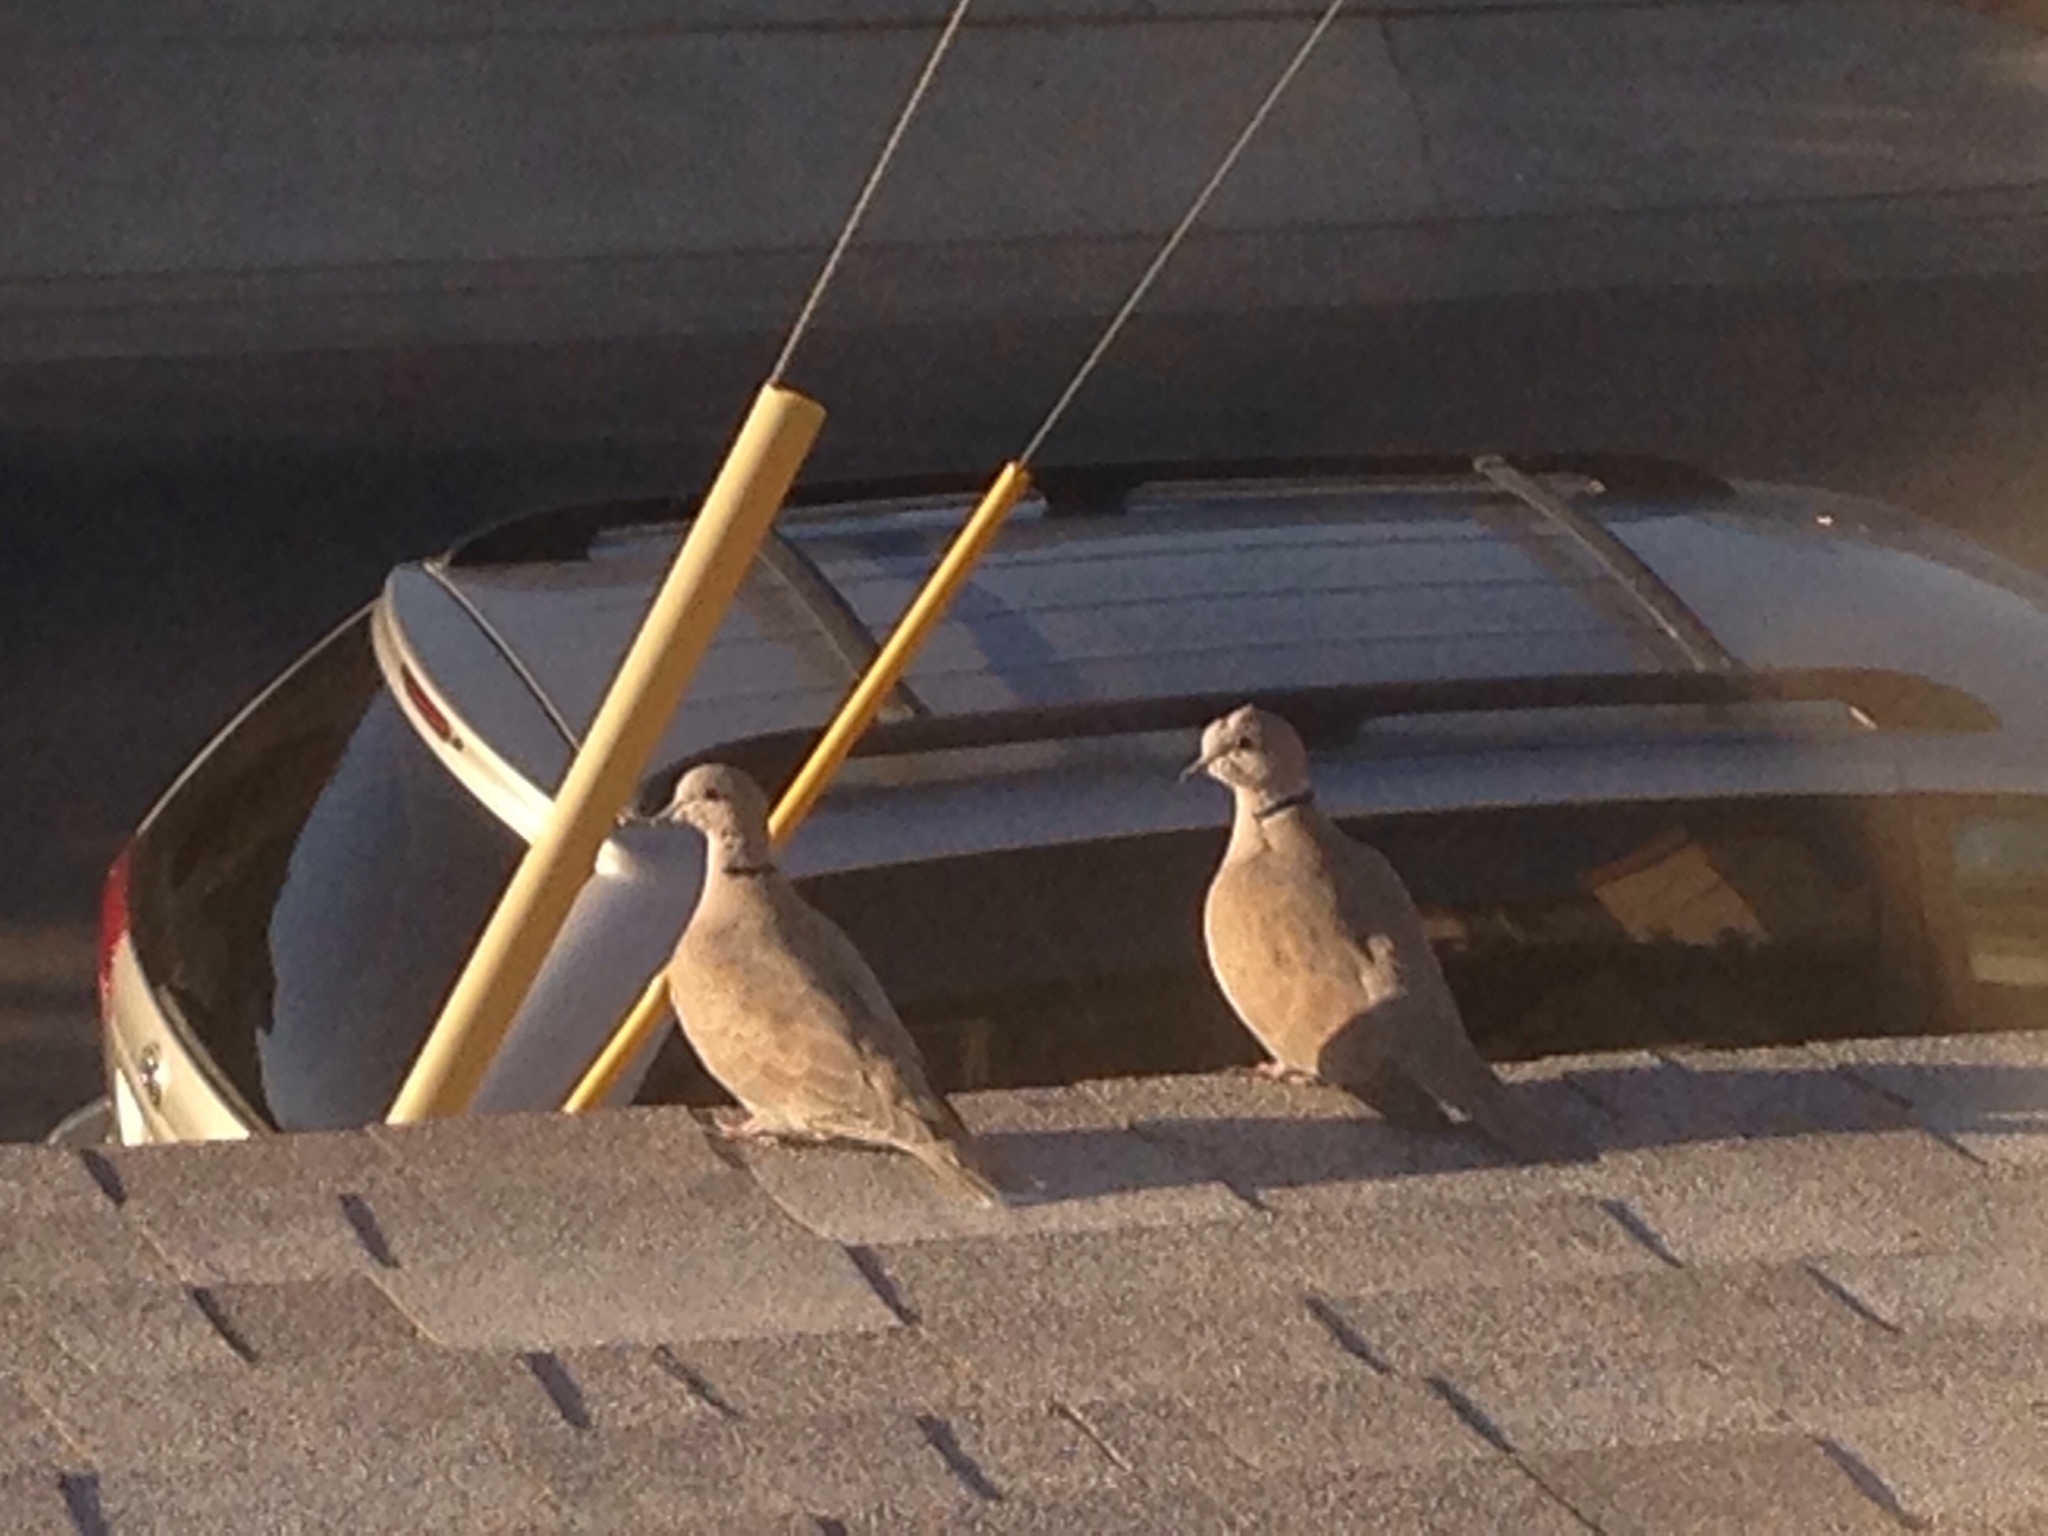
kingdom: Animalia
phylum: Chordata
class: Aves
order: Columbiformes
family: Columbidae
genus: Streptopelia
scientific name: Streptopelia decaocto
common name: Eurasian collared dove
